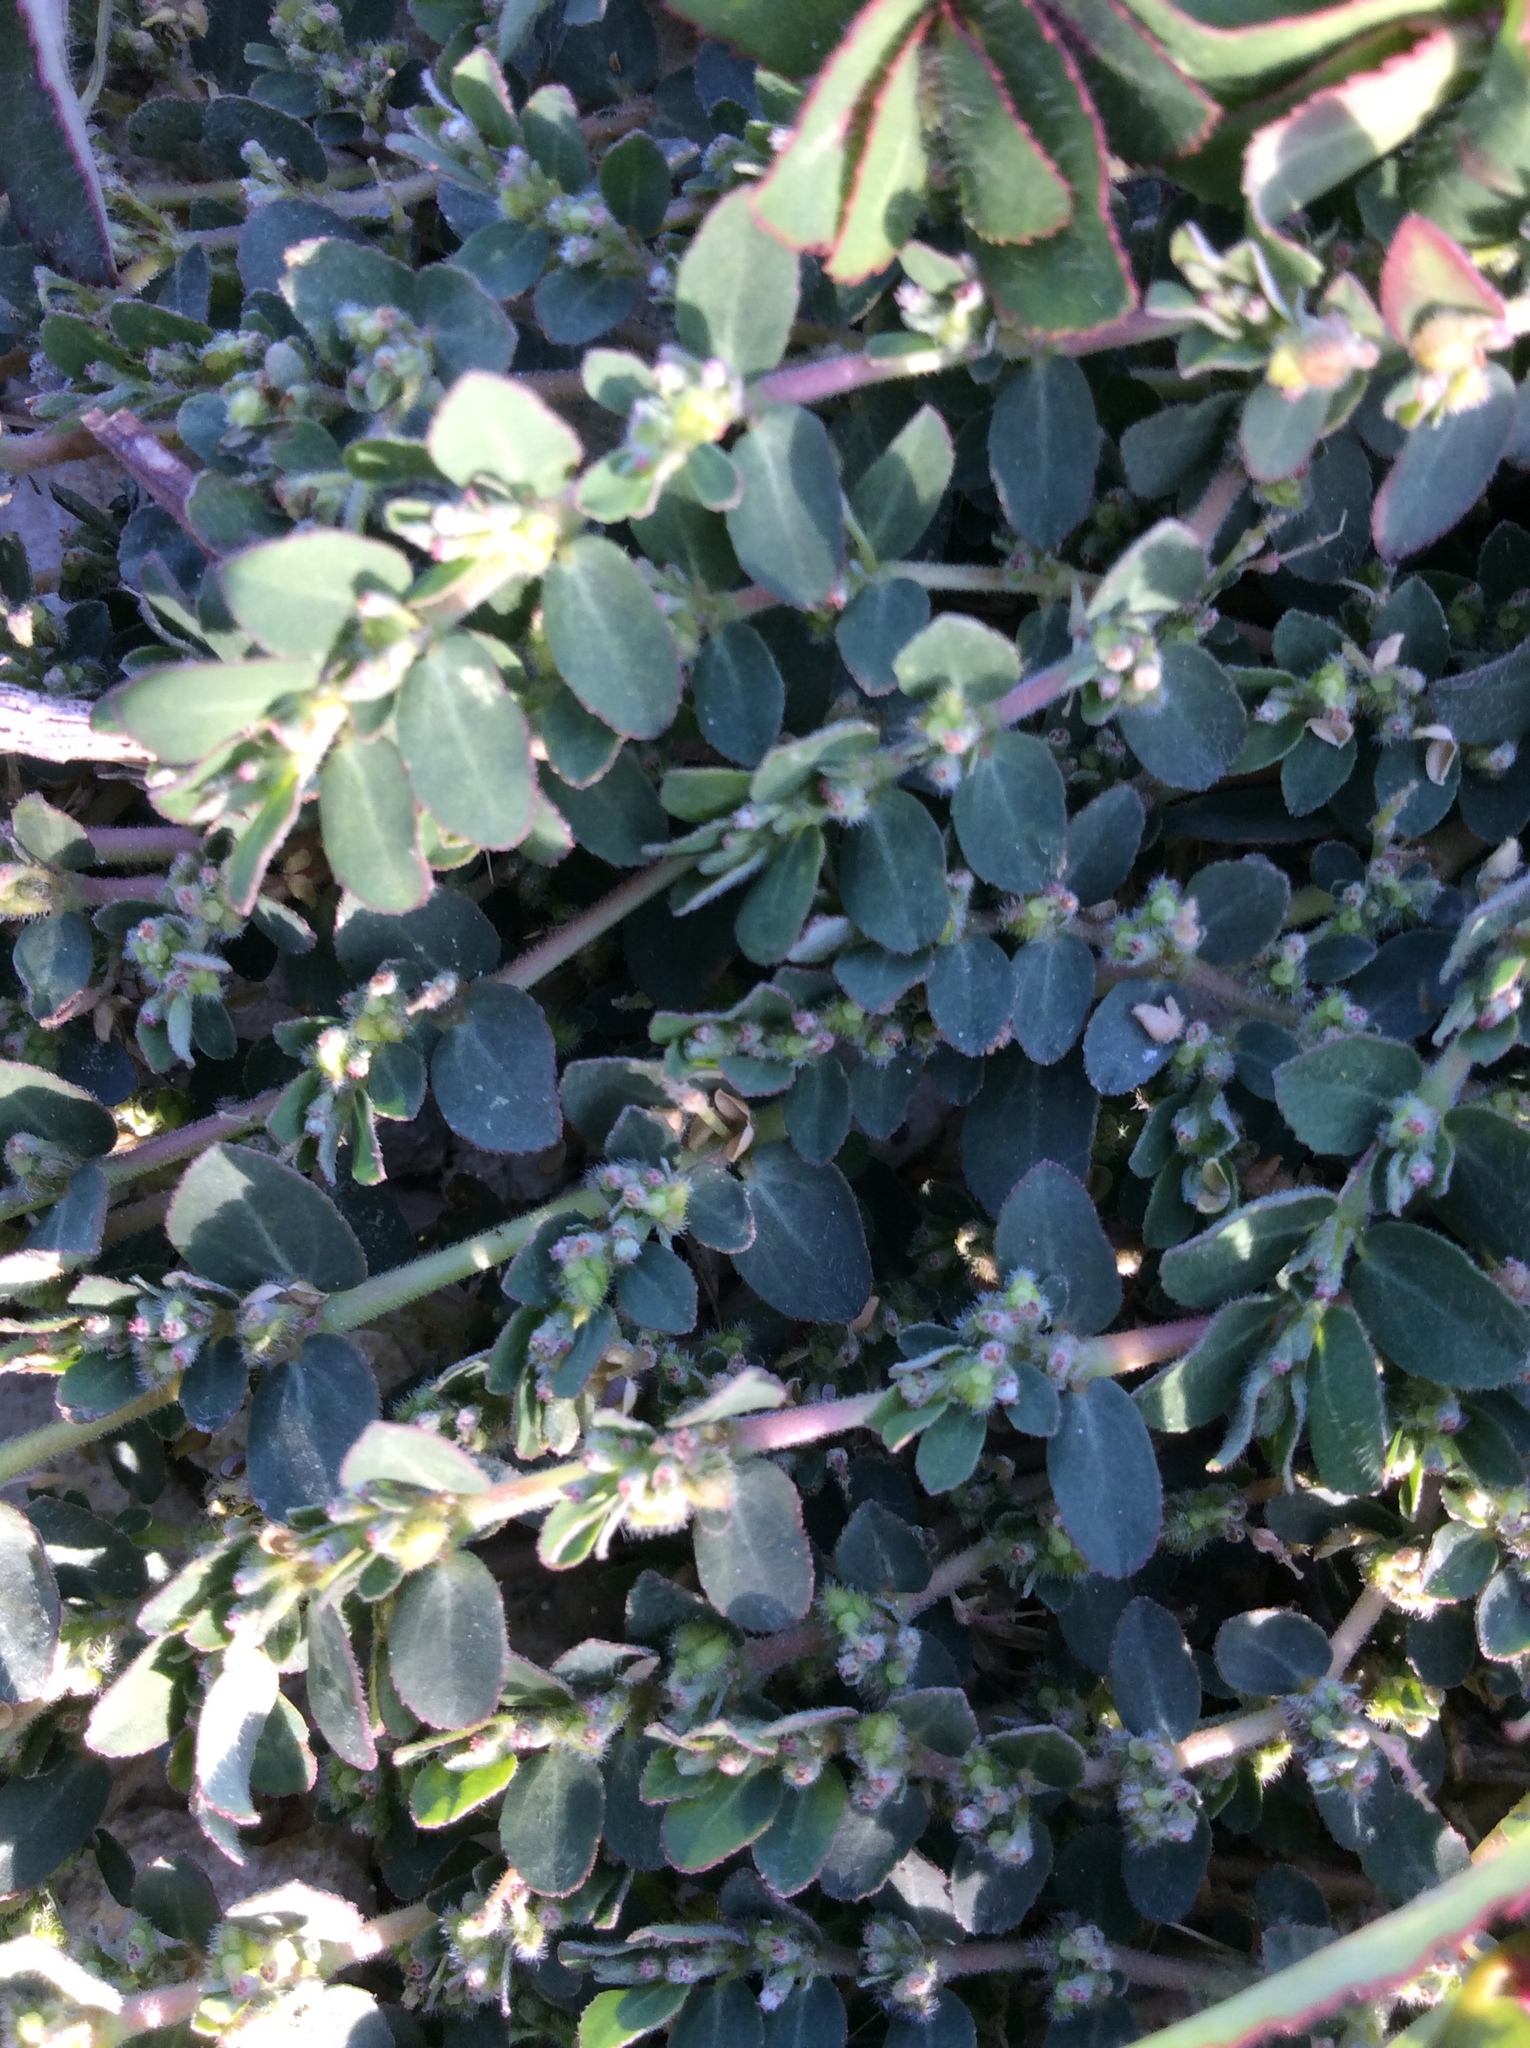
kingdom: Plantae
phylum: Tracheophyta
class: Magnoliopsida
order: Malpighiales
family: Euphorbiaceae
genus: Euphorbia
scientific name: Euphorbia prostrata
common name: Prostrate sandmat
